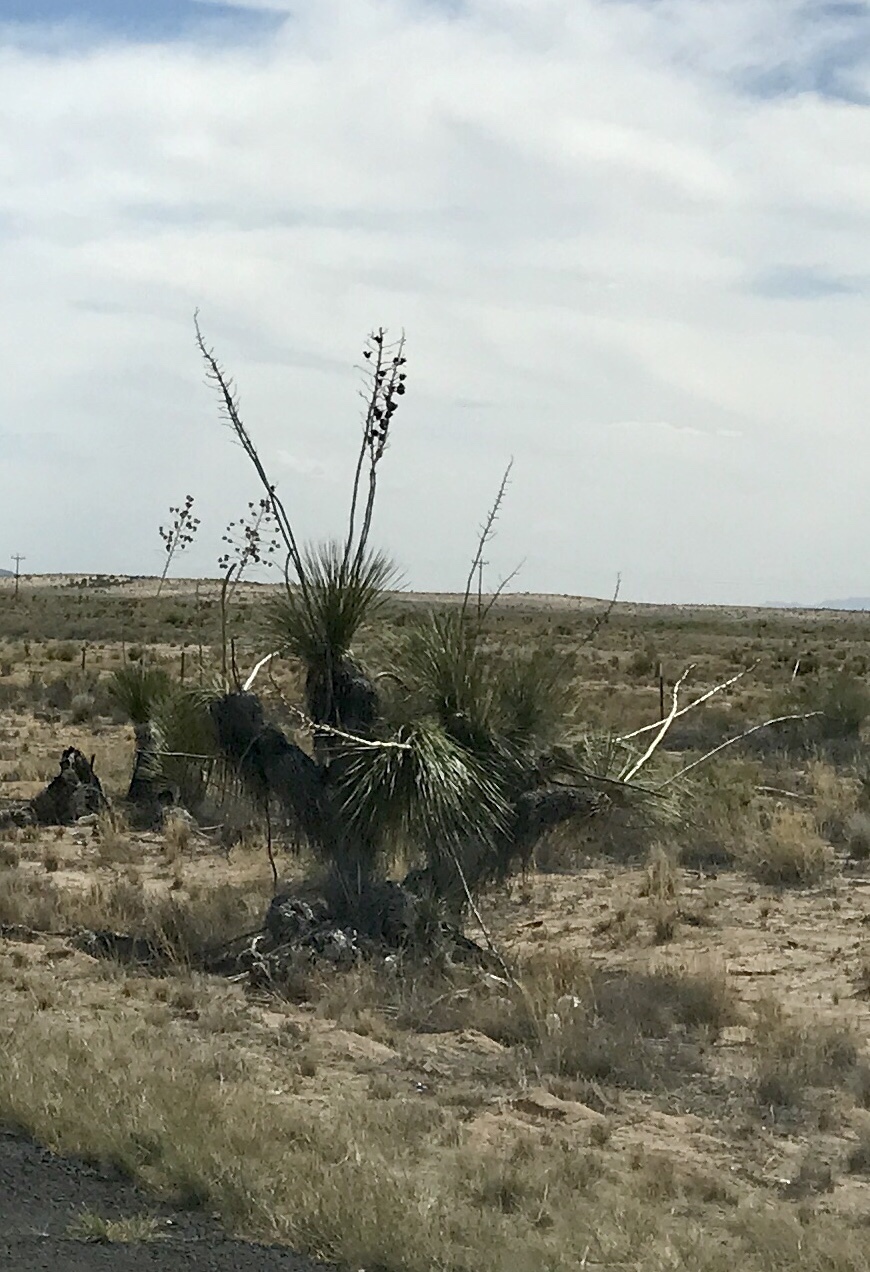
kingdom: Plantae
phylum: Tracheophyta
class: Liliopsida
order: Asparagales
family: Asparagaceae
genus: Yucca
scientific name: Yucca elata
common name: Palmella
